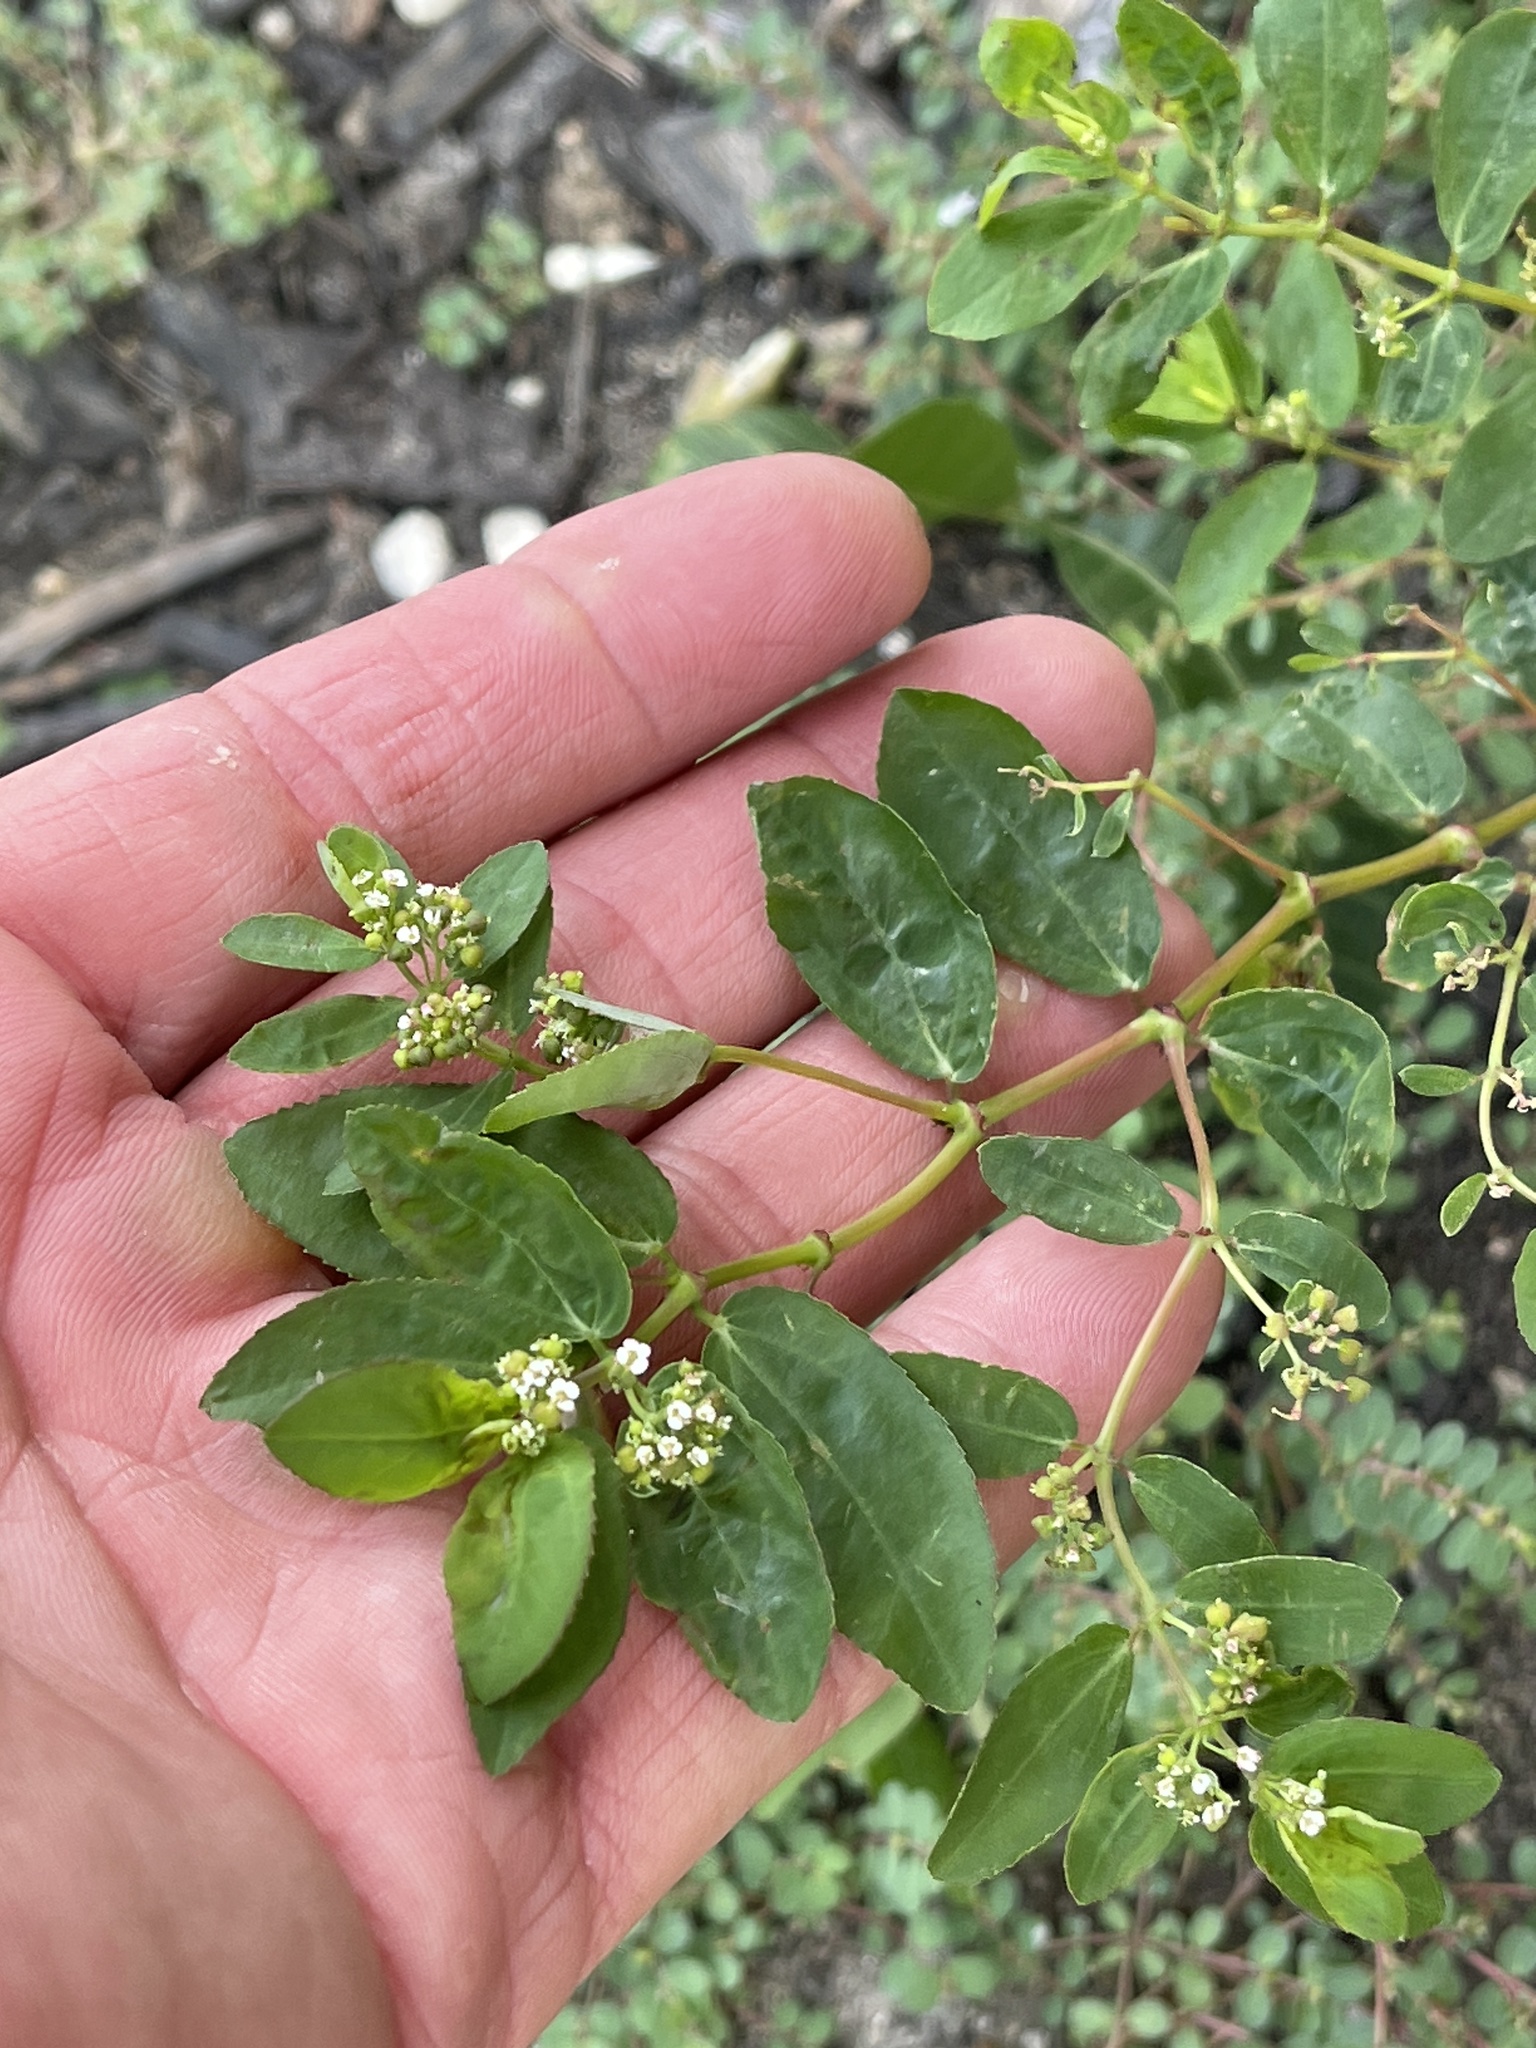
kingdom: Plantae
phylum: Tracheophyta
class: Magnoliopsida
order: Malpighiales
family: Euphorbiaceae
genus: Euphorbia
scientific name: Euphorbia hypericifolia
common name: Graceful sandmat
